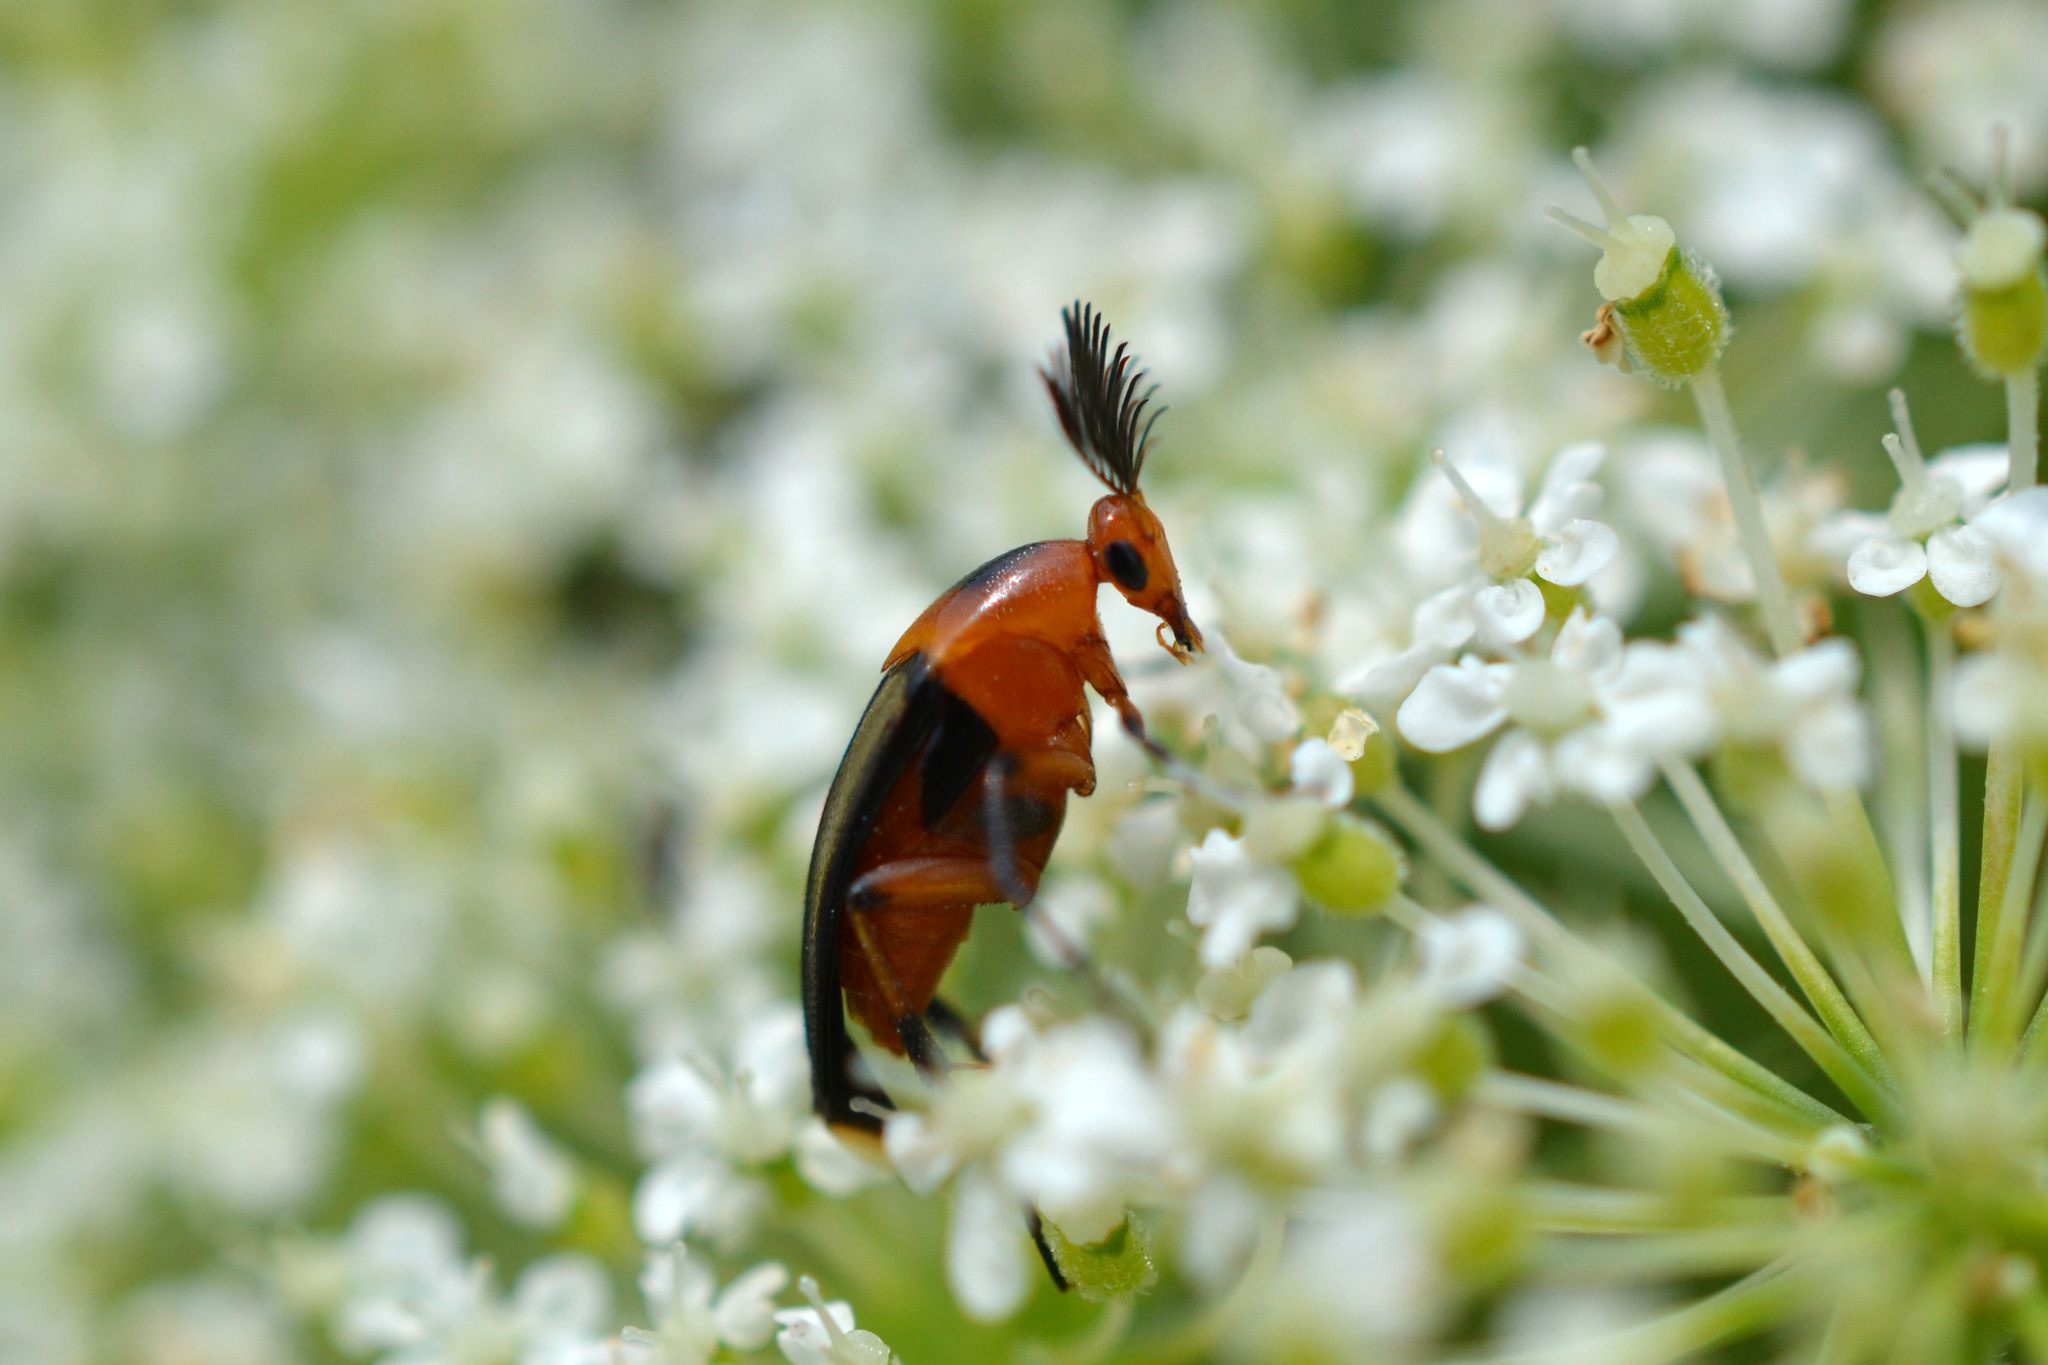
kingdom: Animalia
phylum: Arthropoda
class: Insecta
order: Coleoptera
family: Ripiphoridae
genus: Macrosiagon
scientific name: Macrosiagon limbatum
